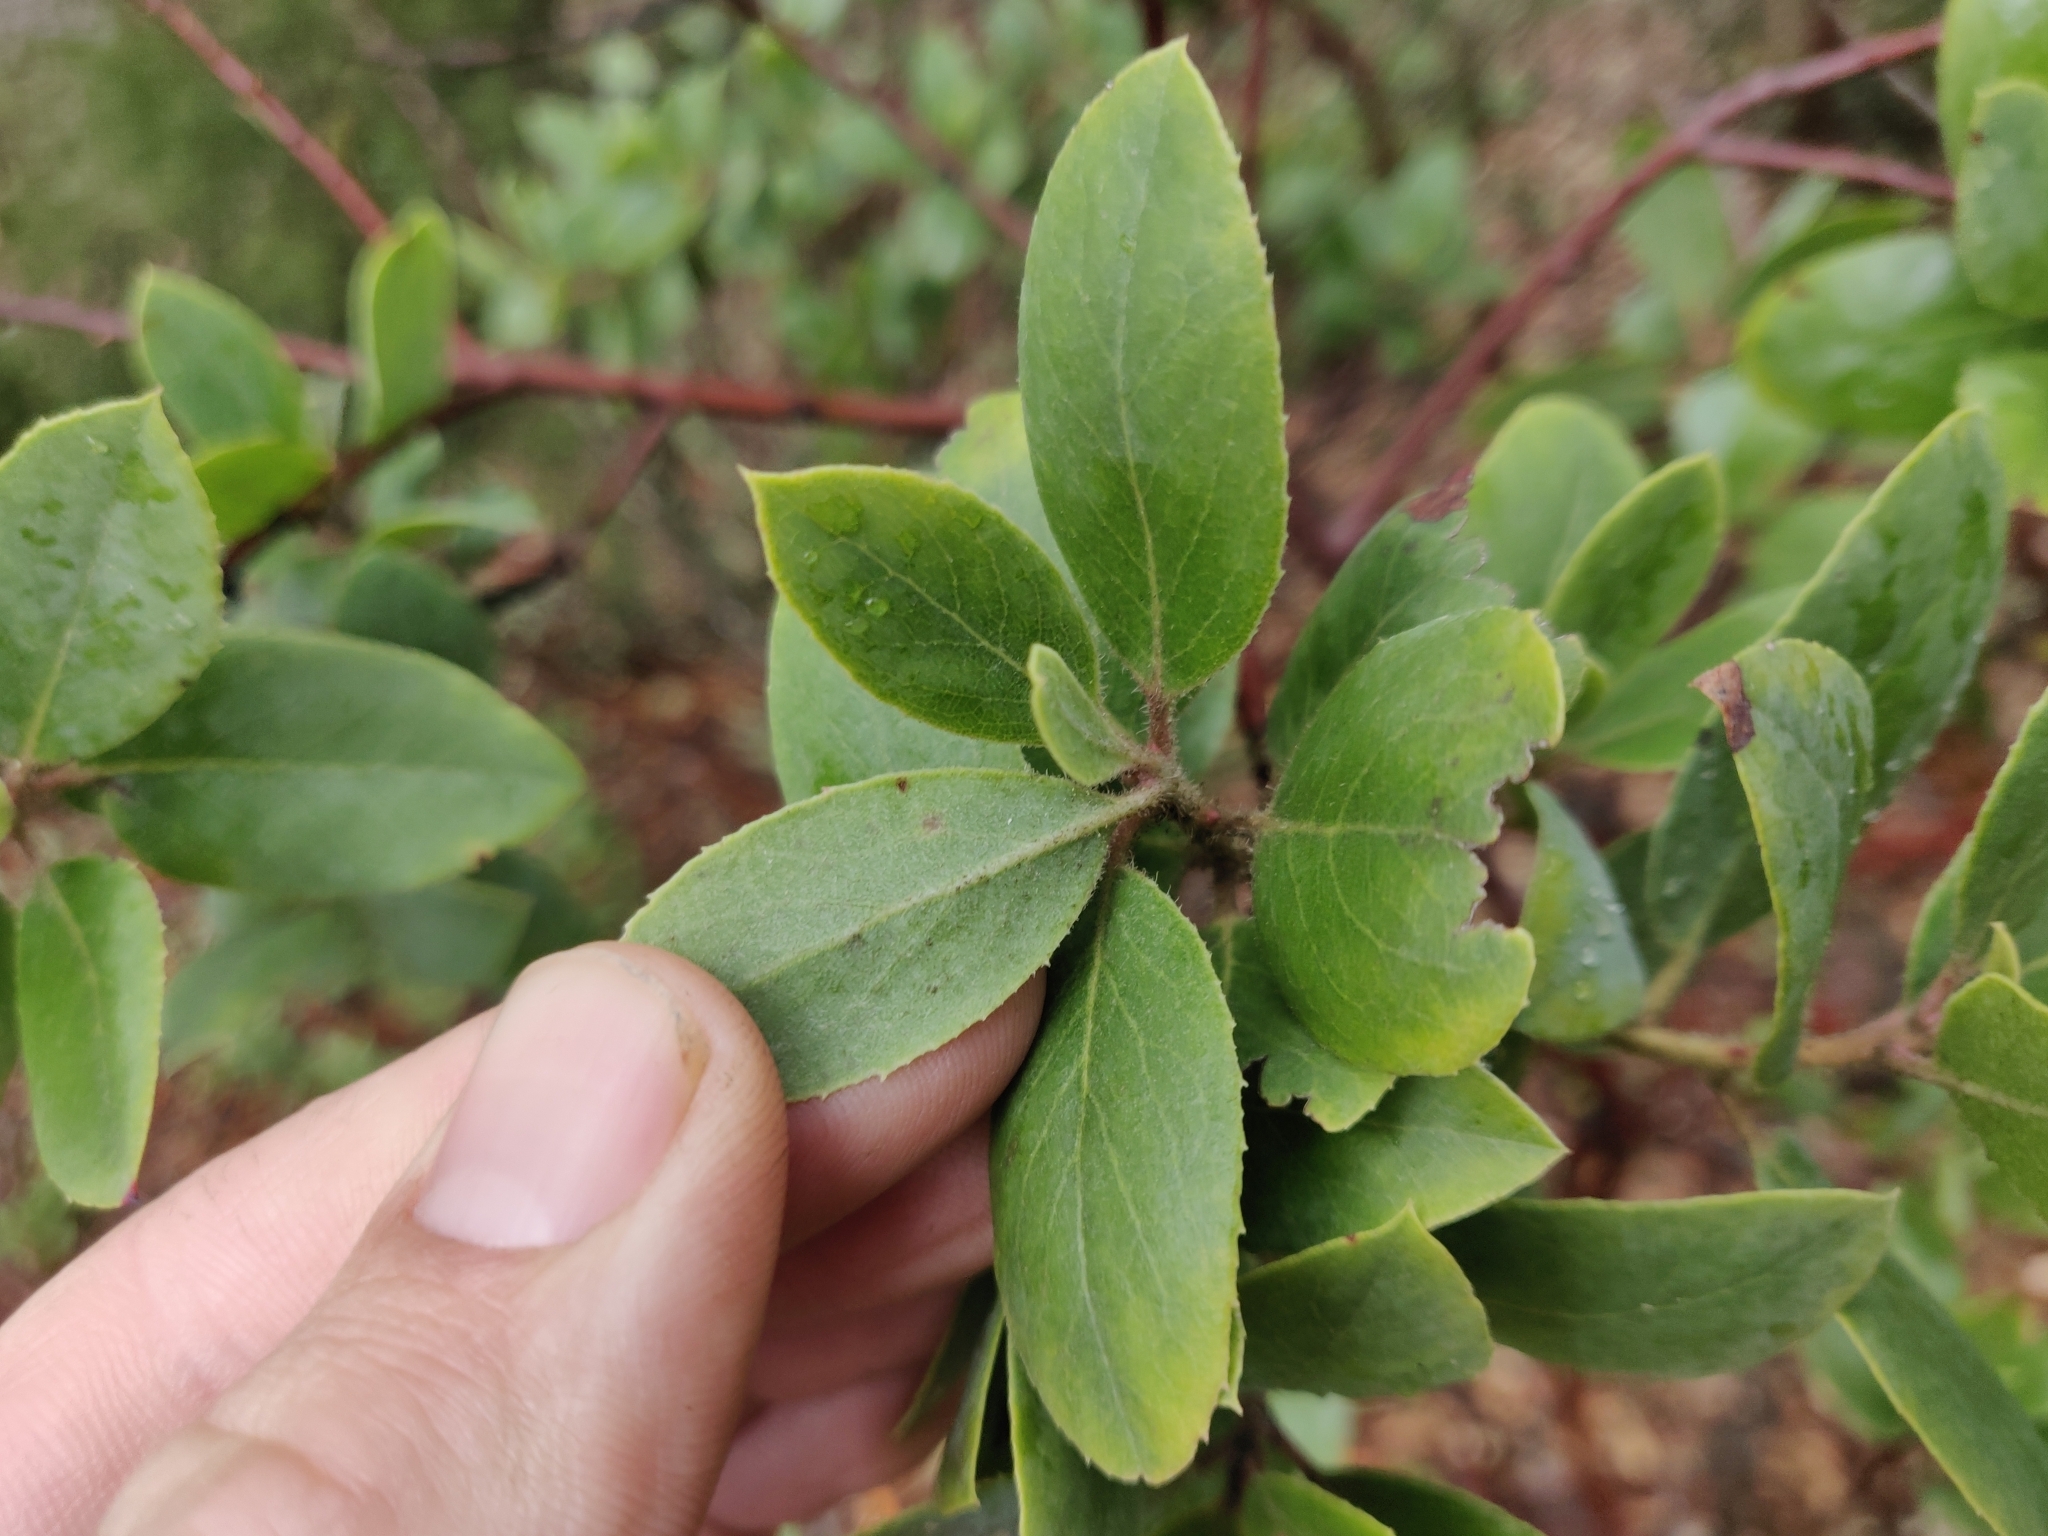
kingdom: Plantae
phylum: Tracheophyta
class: Magnoliopsida
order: Ericales
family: Ericaceae
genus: Arctostaphylos
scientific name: Arctostaphylos glandulosa
